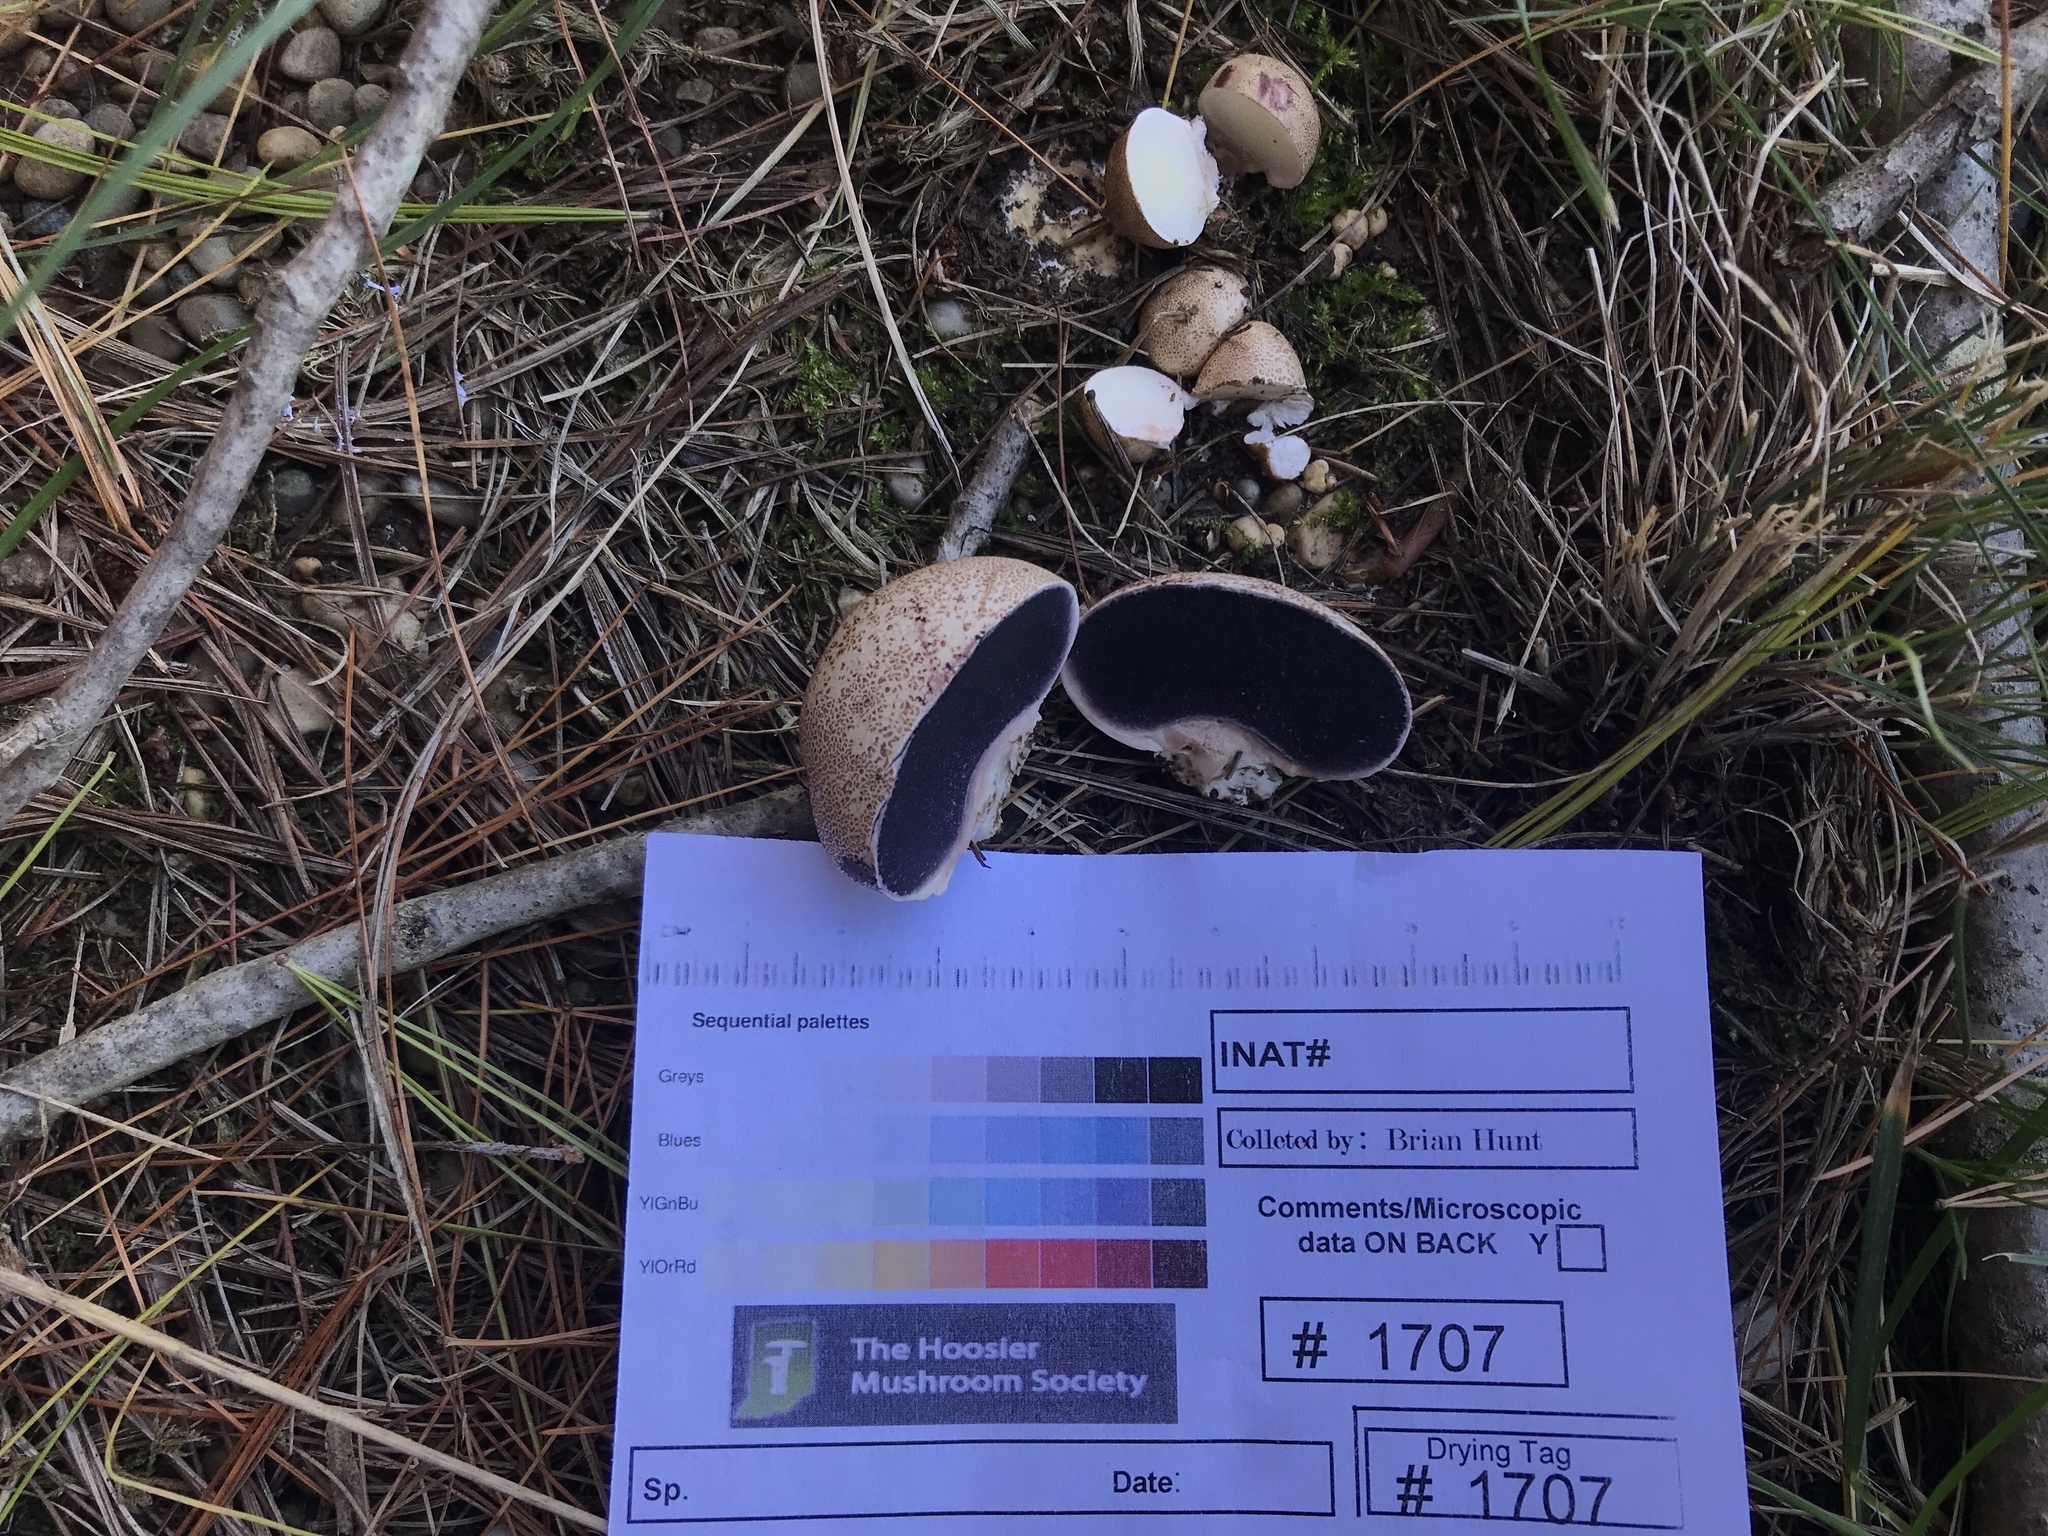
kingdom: Fungi
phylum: Basidiomycota
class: Agaricomycetes
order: Boletales
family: Sclerodermataceae
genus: Scleroderma
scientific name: Scleroderma areolatum
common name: Leopard earthball
